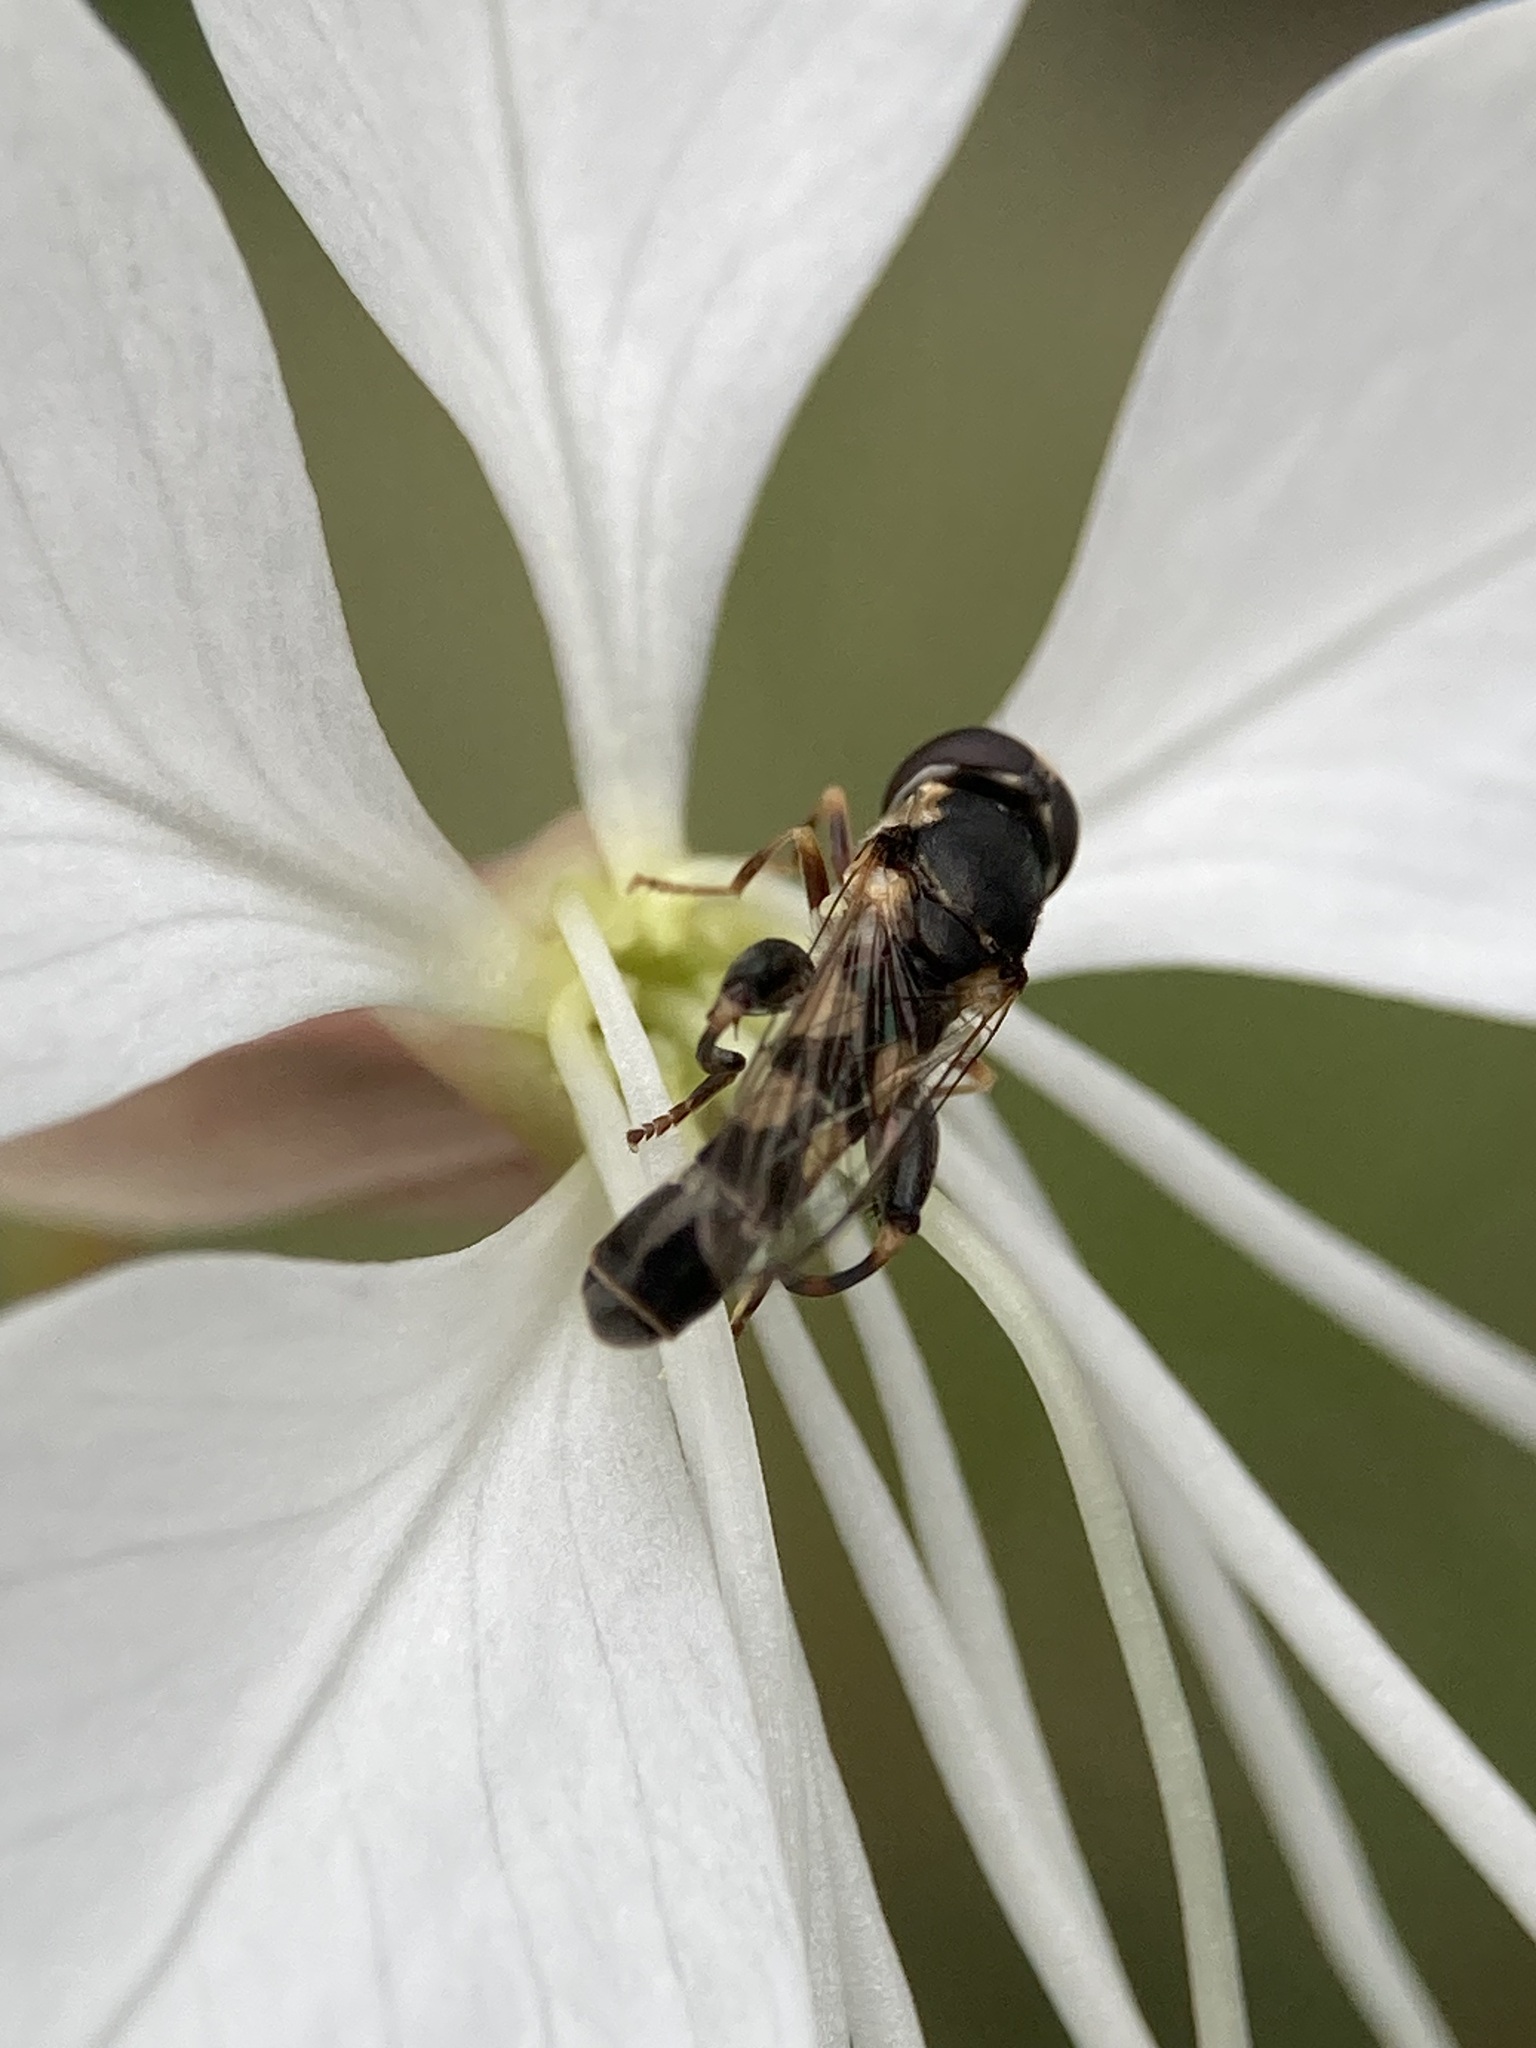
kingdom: Animalia
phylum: Arthropoda
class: Insecta
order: Diptera
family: Syrphidae
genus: Syritta
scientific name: Syritta pipiens
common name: Hover fly
